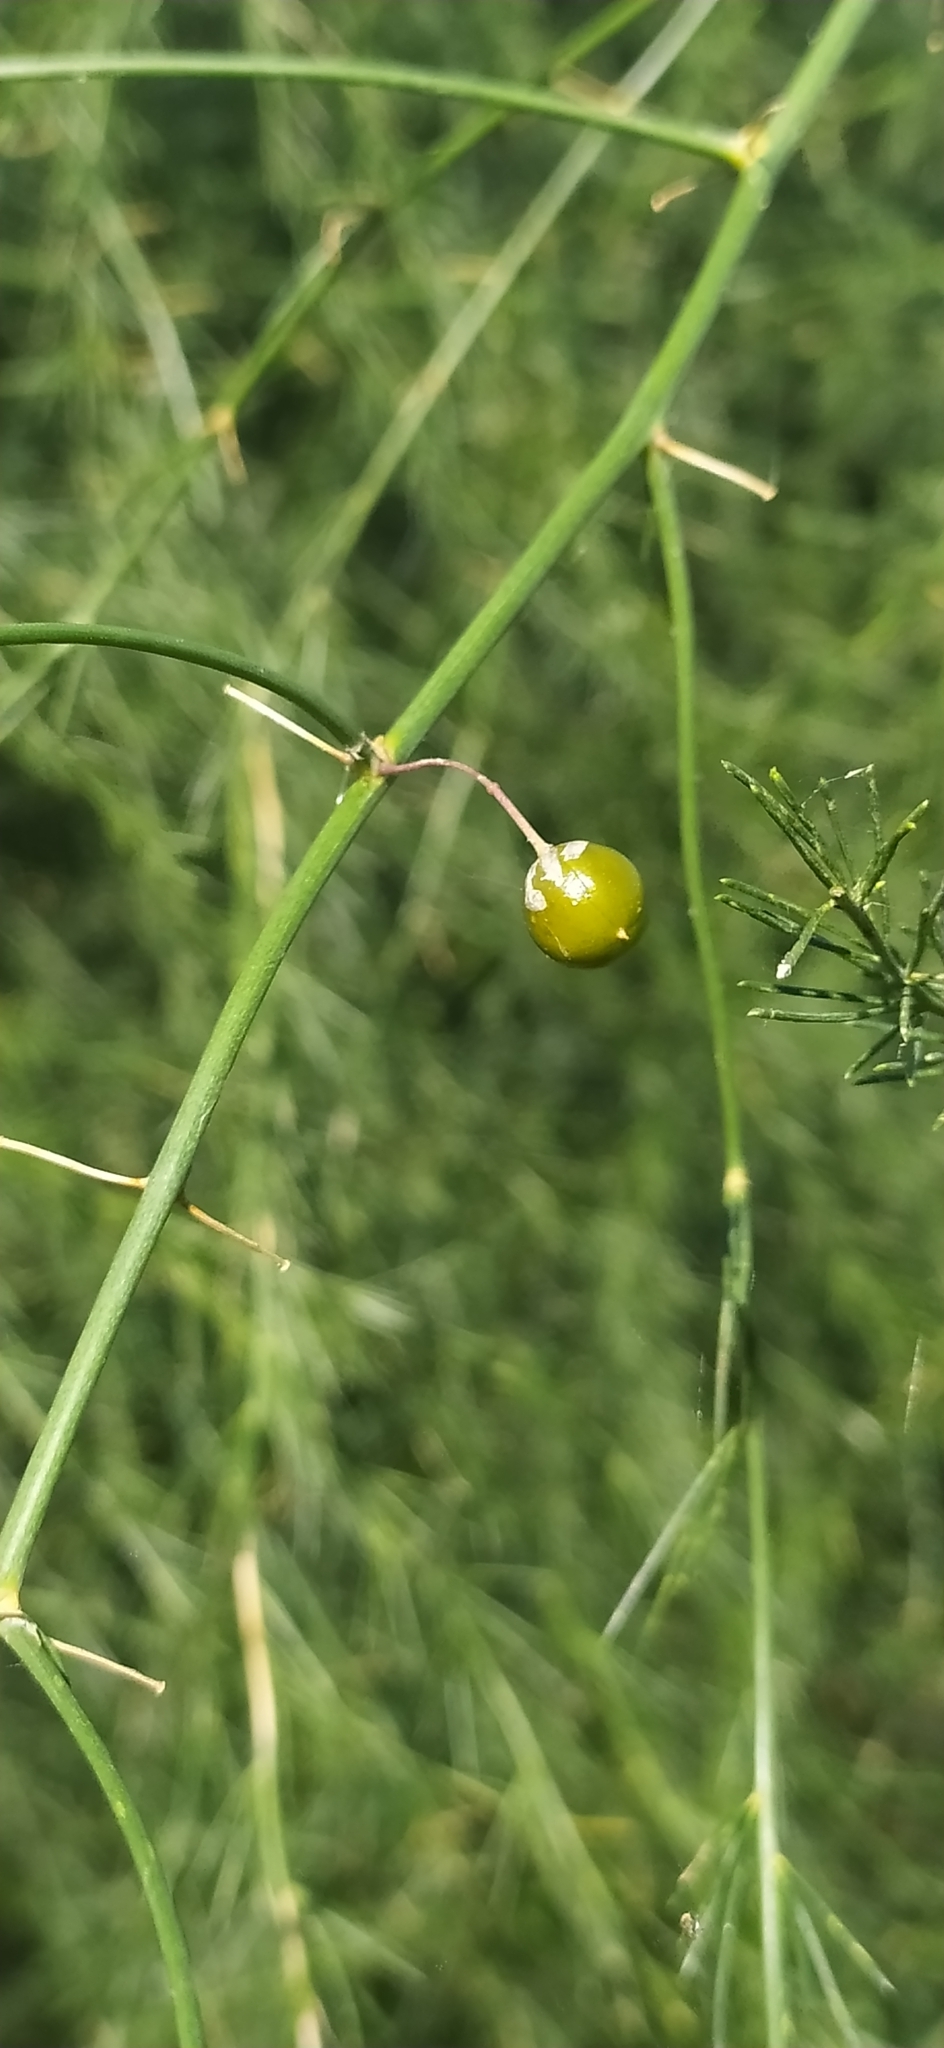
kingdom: Plantae
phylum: Tracheophyta
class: Liliopsida
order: Asparagales
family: Asparagaceae
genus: Asparagus
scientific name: Asparagus officinalis
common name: Garden asparagus
